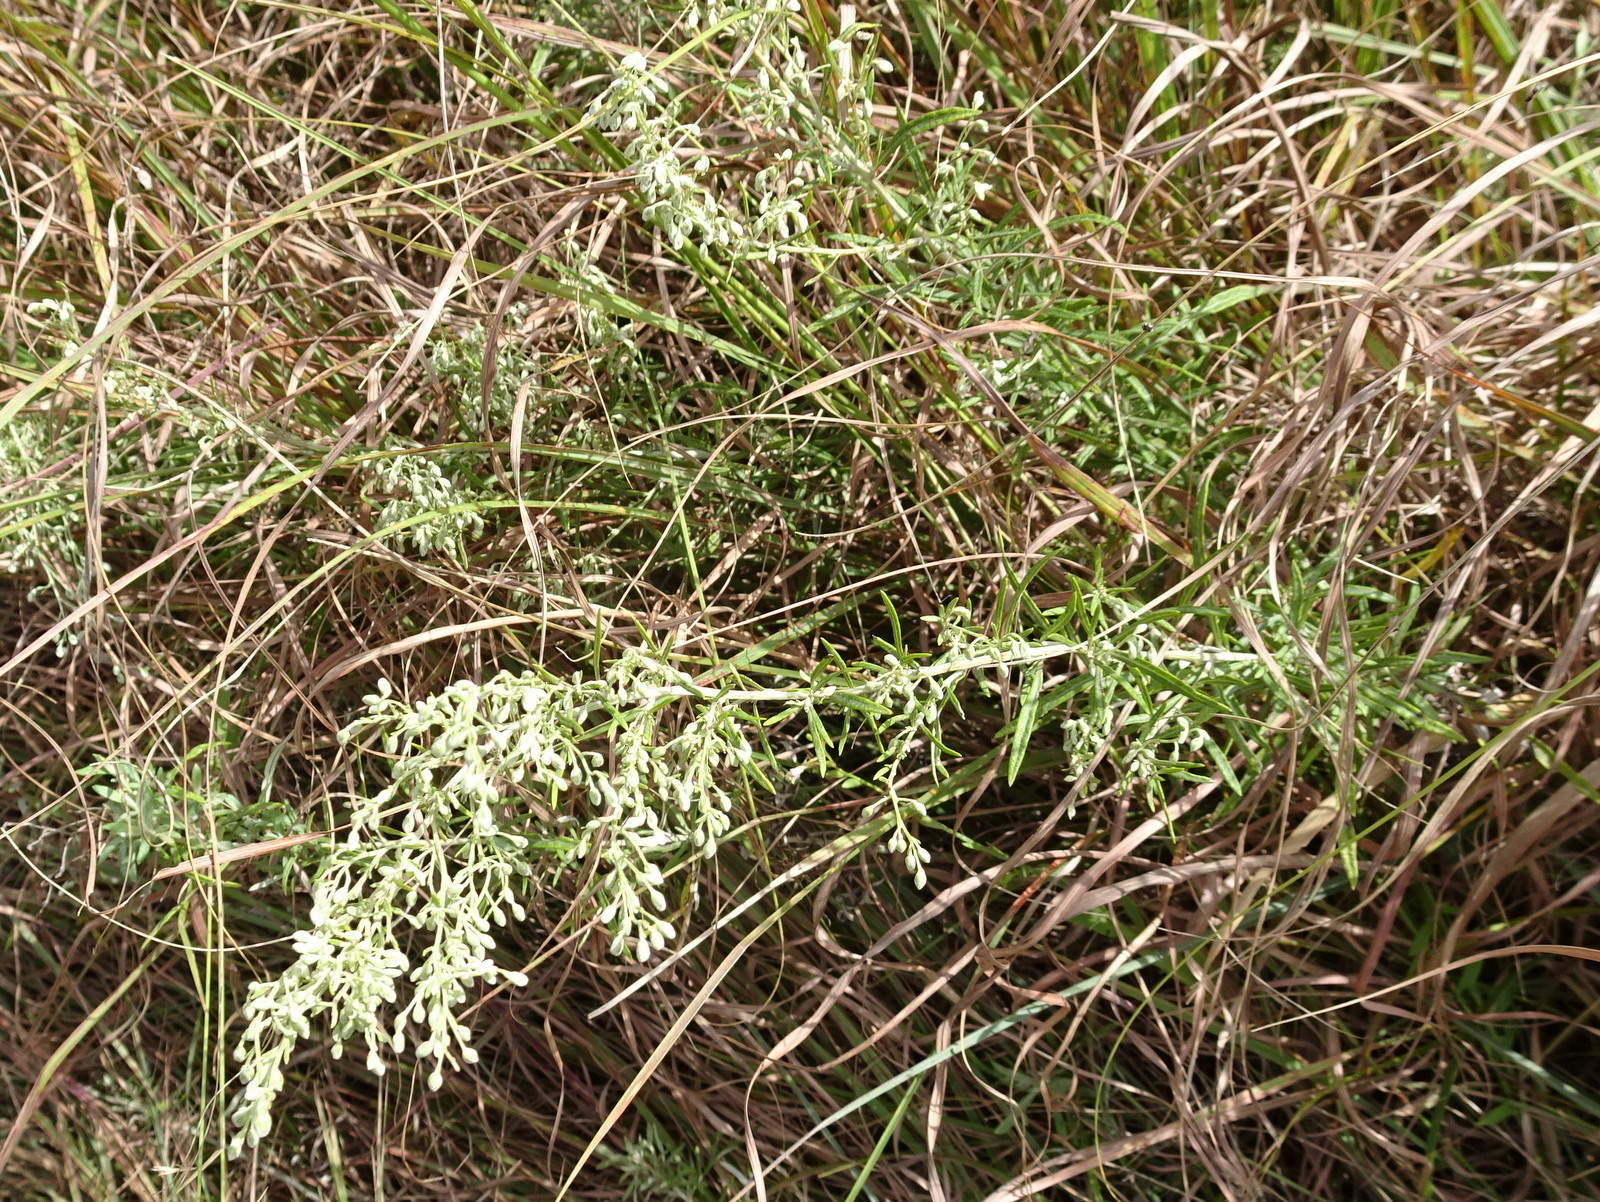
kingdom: Plantae
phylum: Tracheophyta
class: Magnoliopsida
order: Asterales
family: Asteraceae
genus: Artemisia
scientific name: Artemisia ludoviciana
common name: Western mugwort
